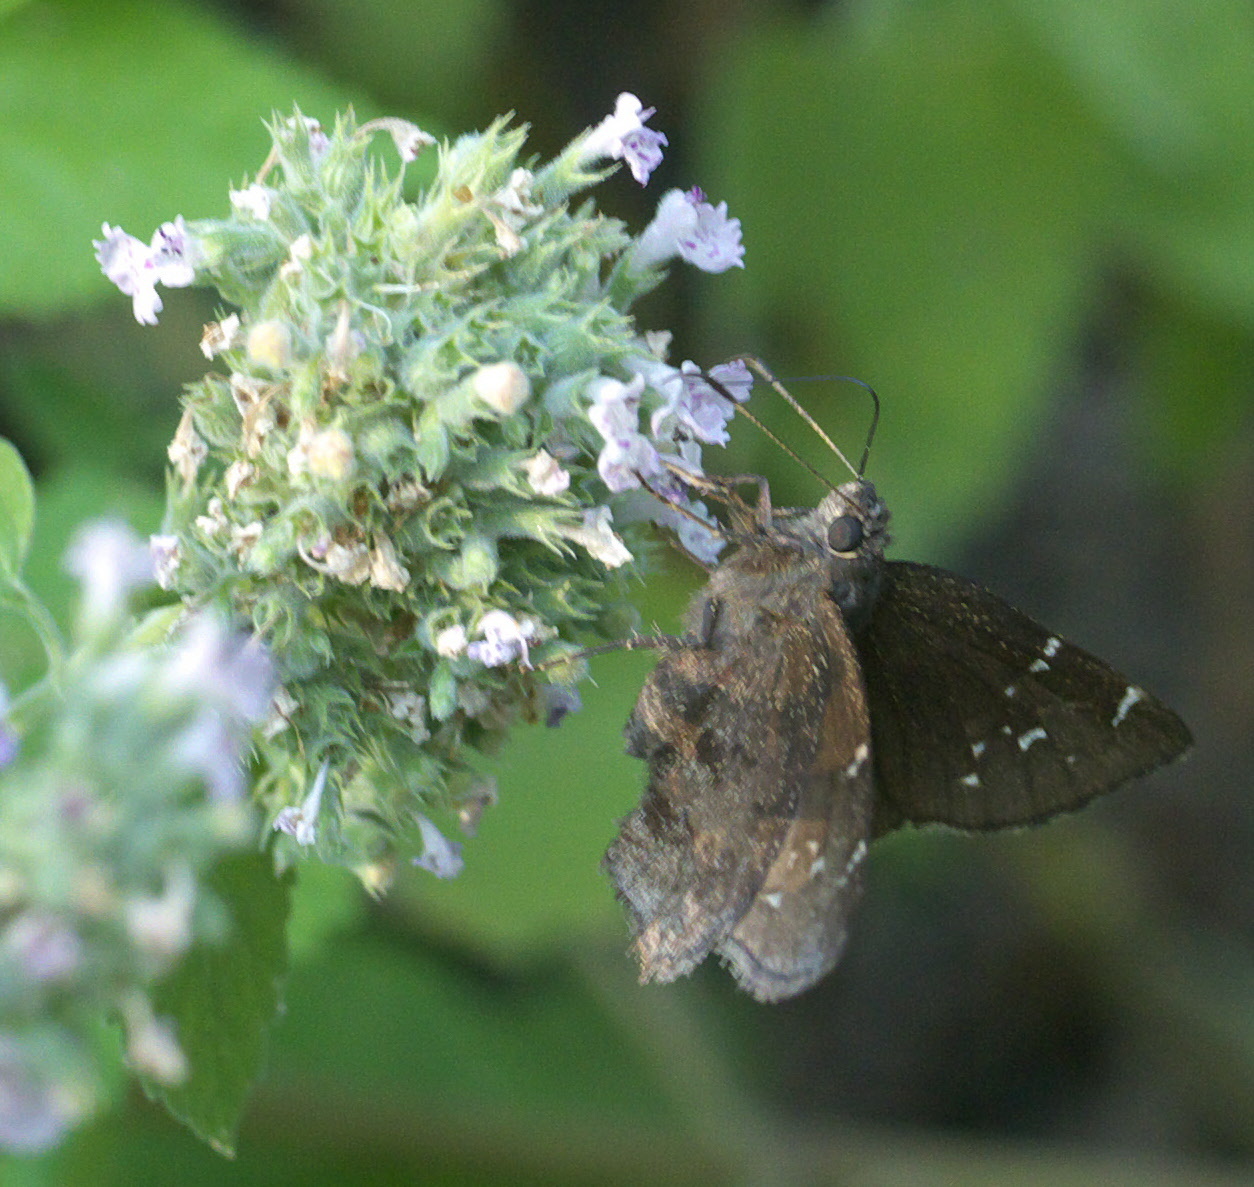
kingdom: Animalia
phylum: Arthropoda
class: Insecta
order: Lepidoptera
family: Hesperiidae
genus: Thorybes
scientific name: Thorybes pylades
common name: Northern cloudywing
